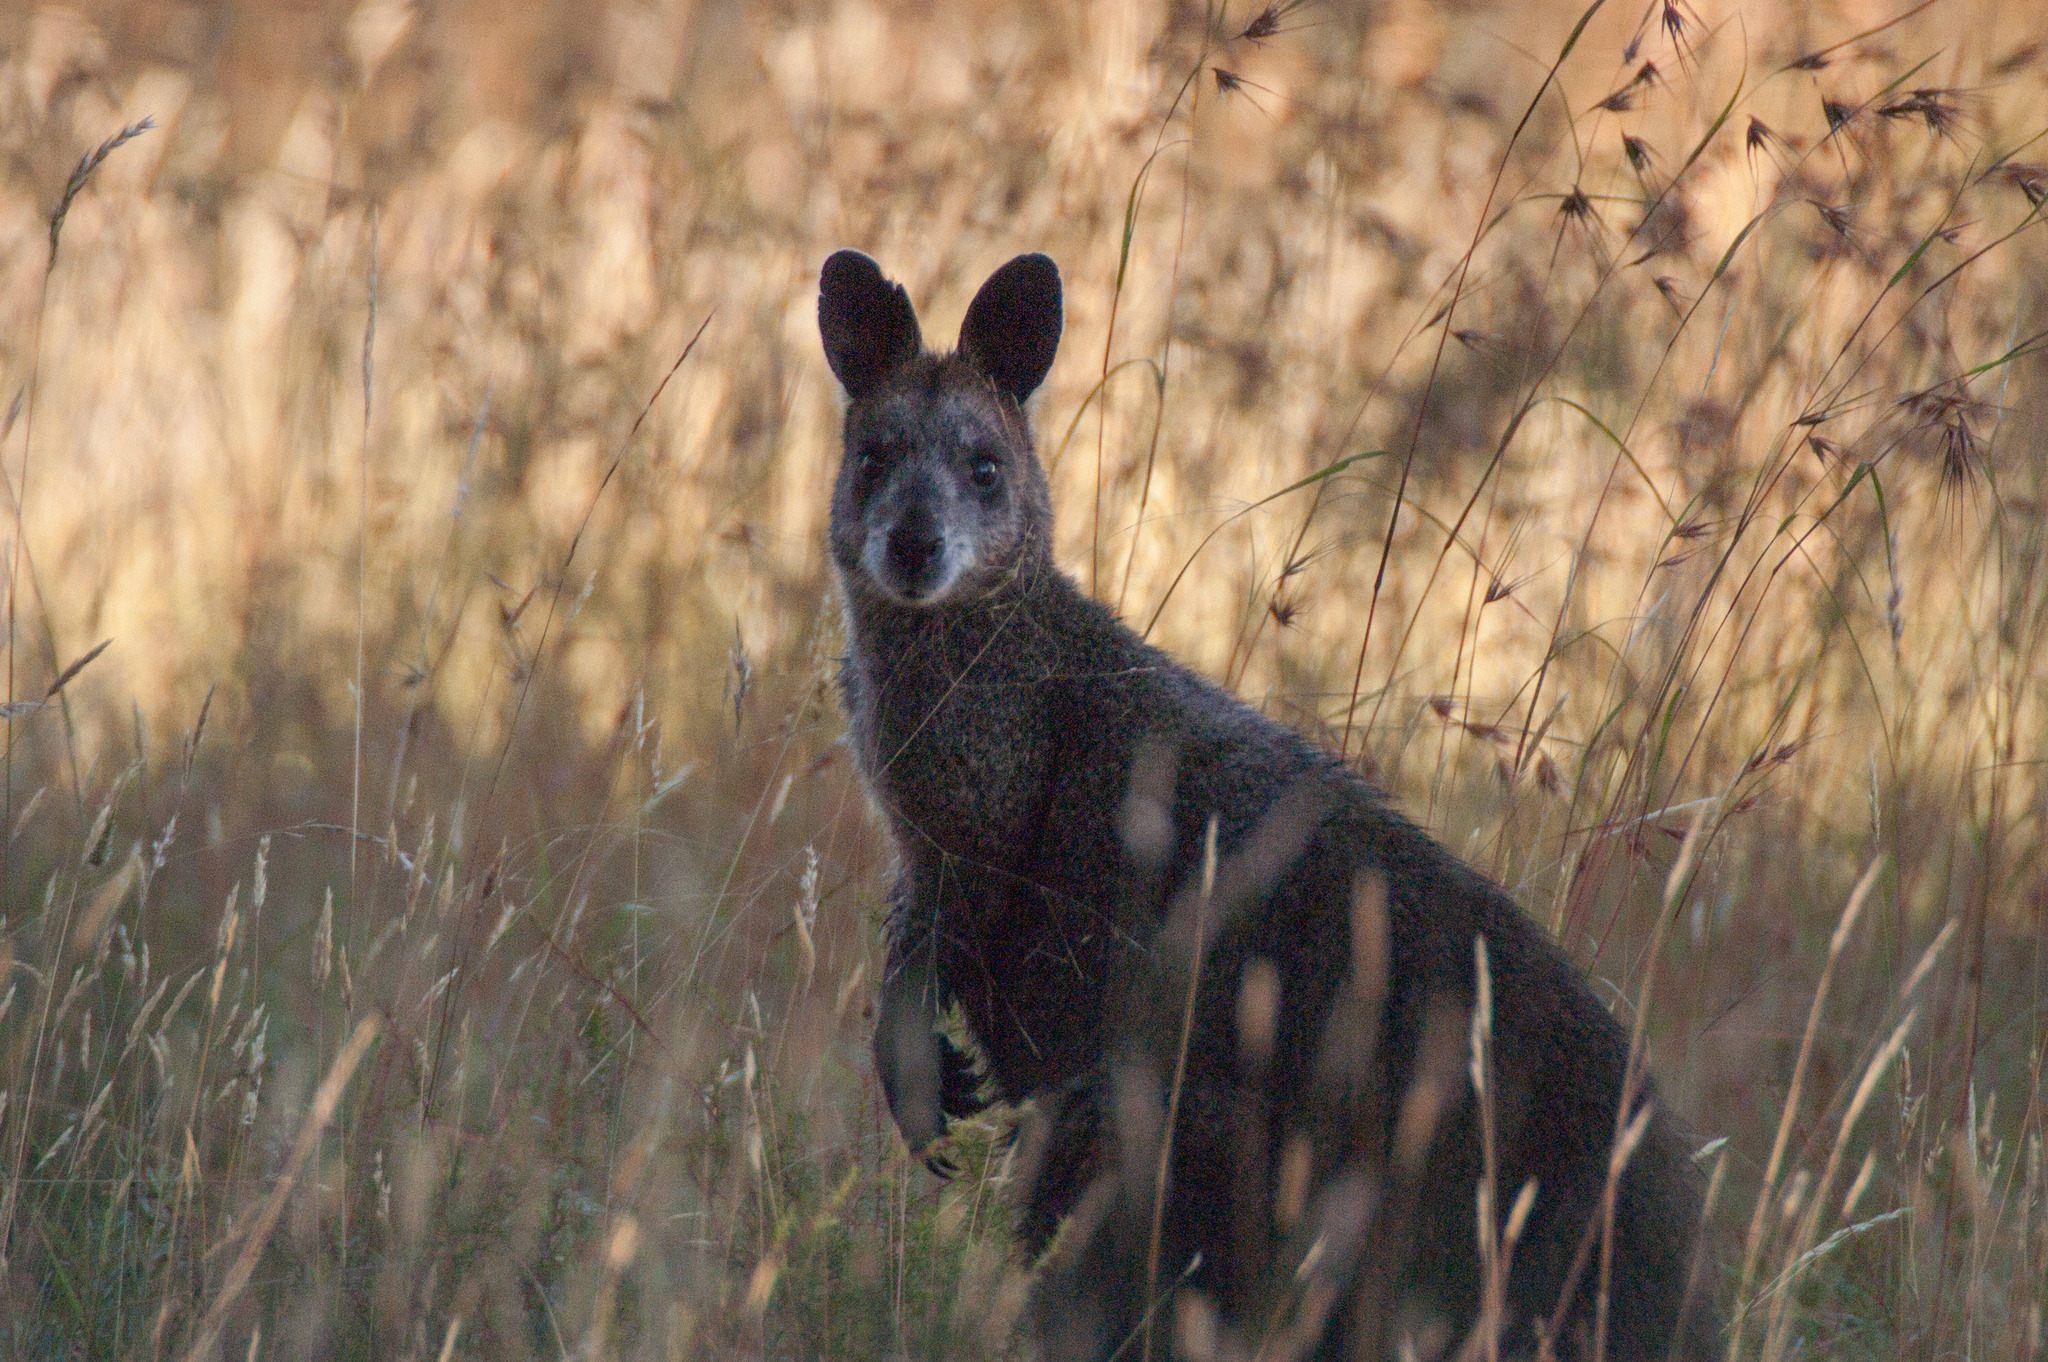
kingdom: Animalia
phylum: Chordata
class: Mammalia
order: Diprotodontia
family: Macropodidae
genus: Wallabia
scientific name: Wallabia bicolor
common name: Swamp wallaby
